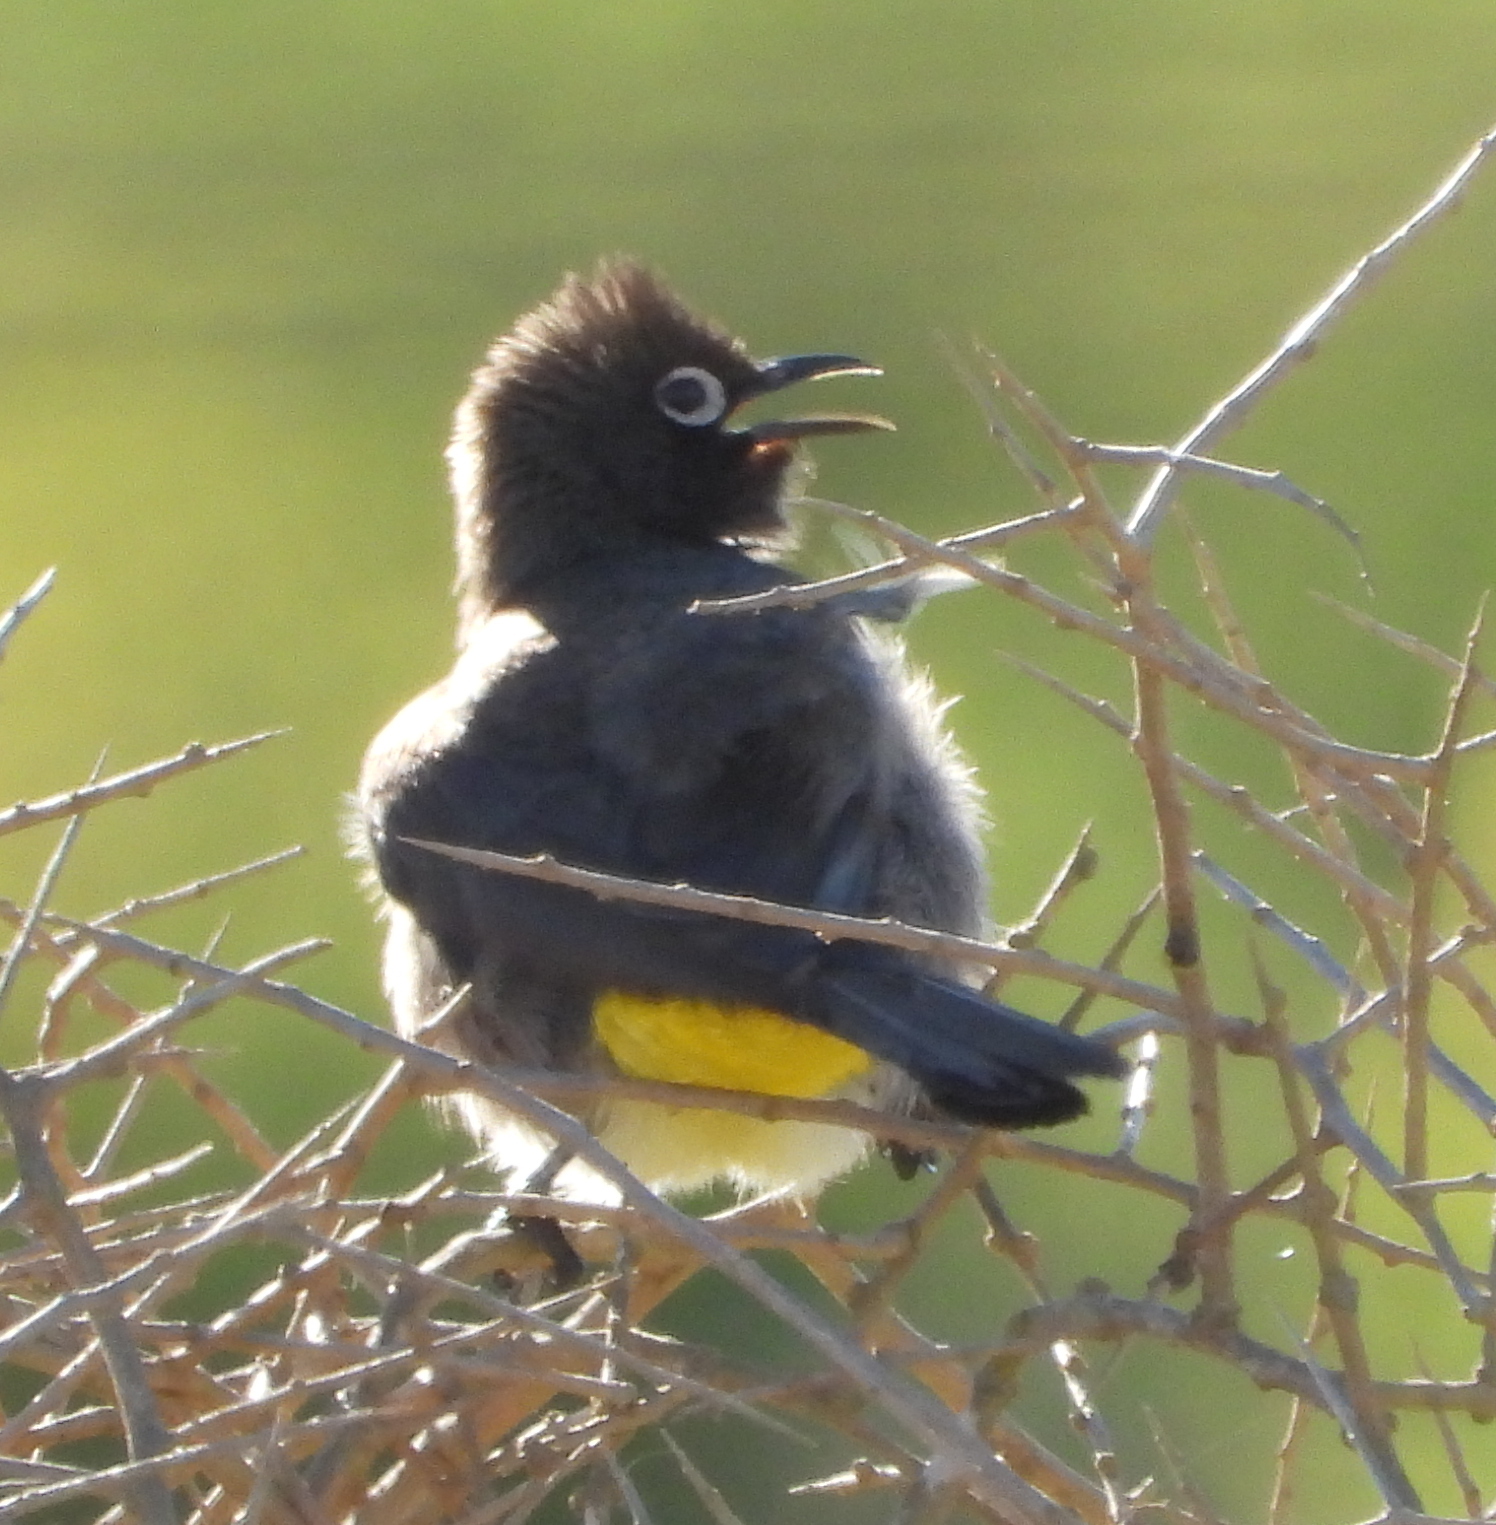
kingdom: Animalia
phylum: Chordata
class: Aves
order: Passeriformes
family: Pycnonotidae
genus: Pycnonotus
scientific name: Pycnonotus capensis
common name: Cape bulbul
